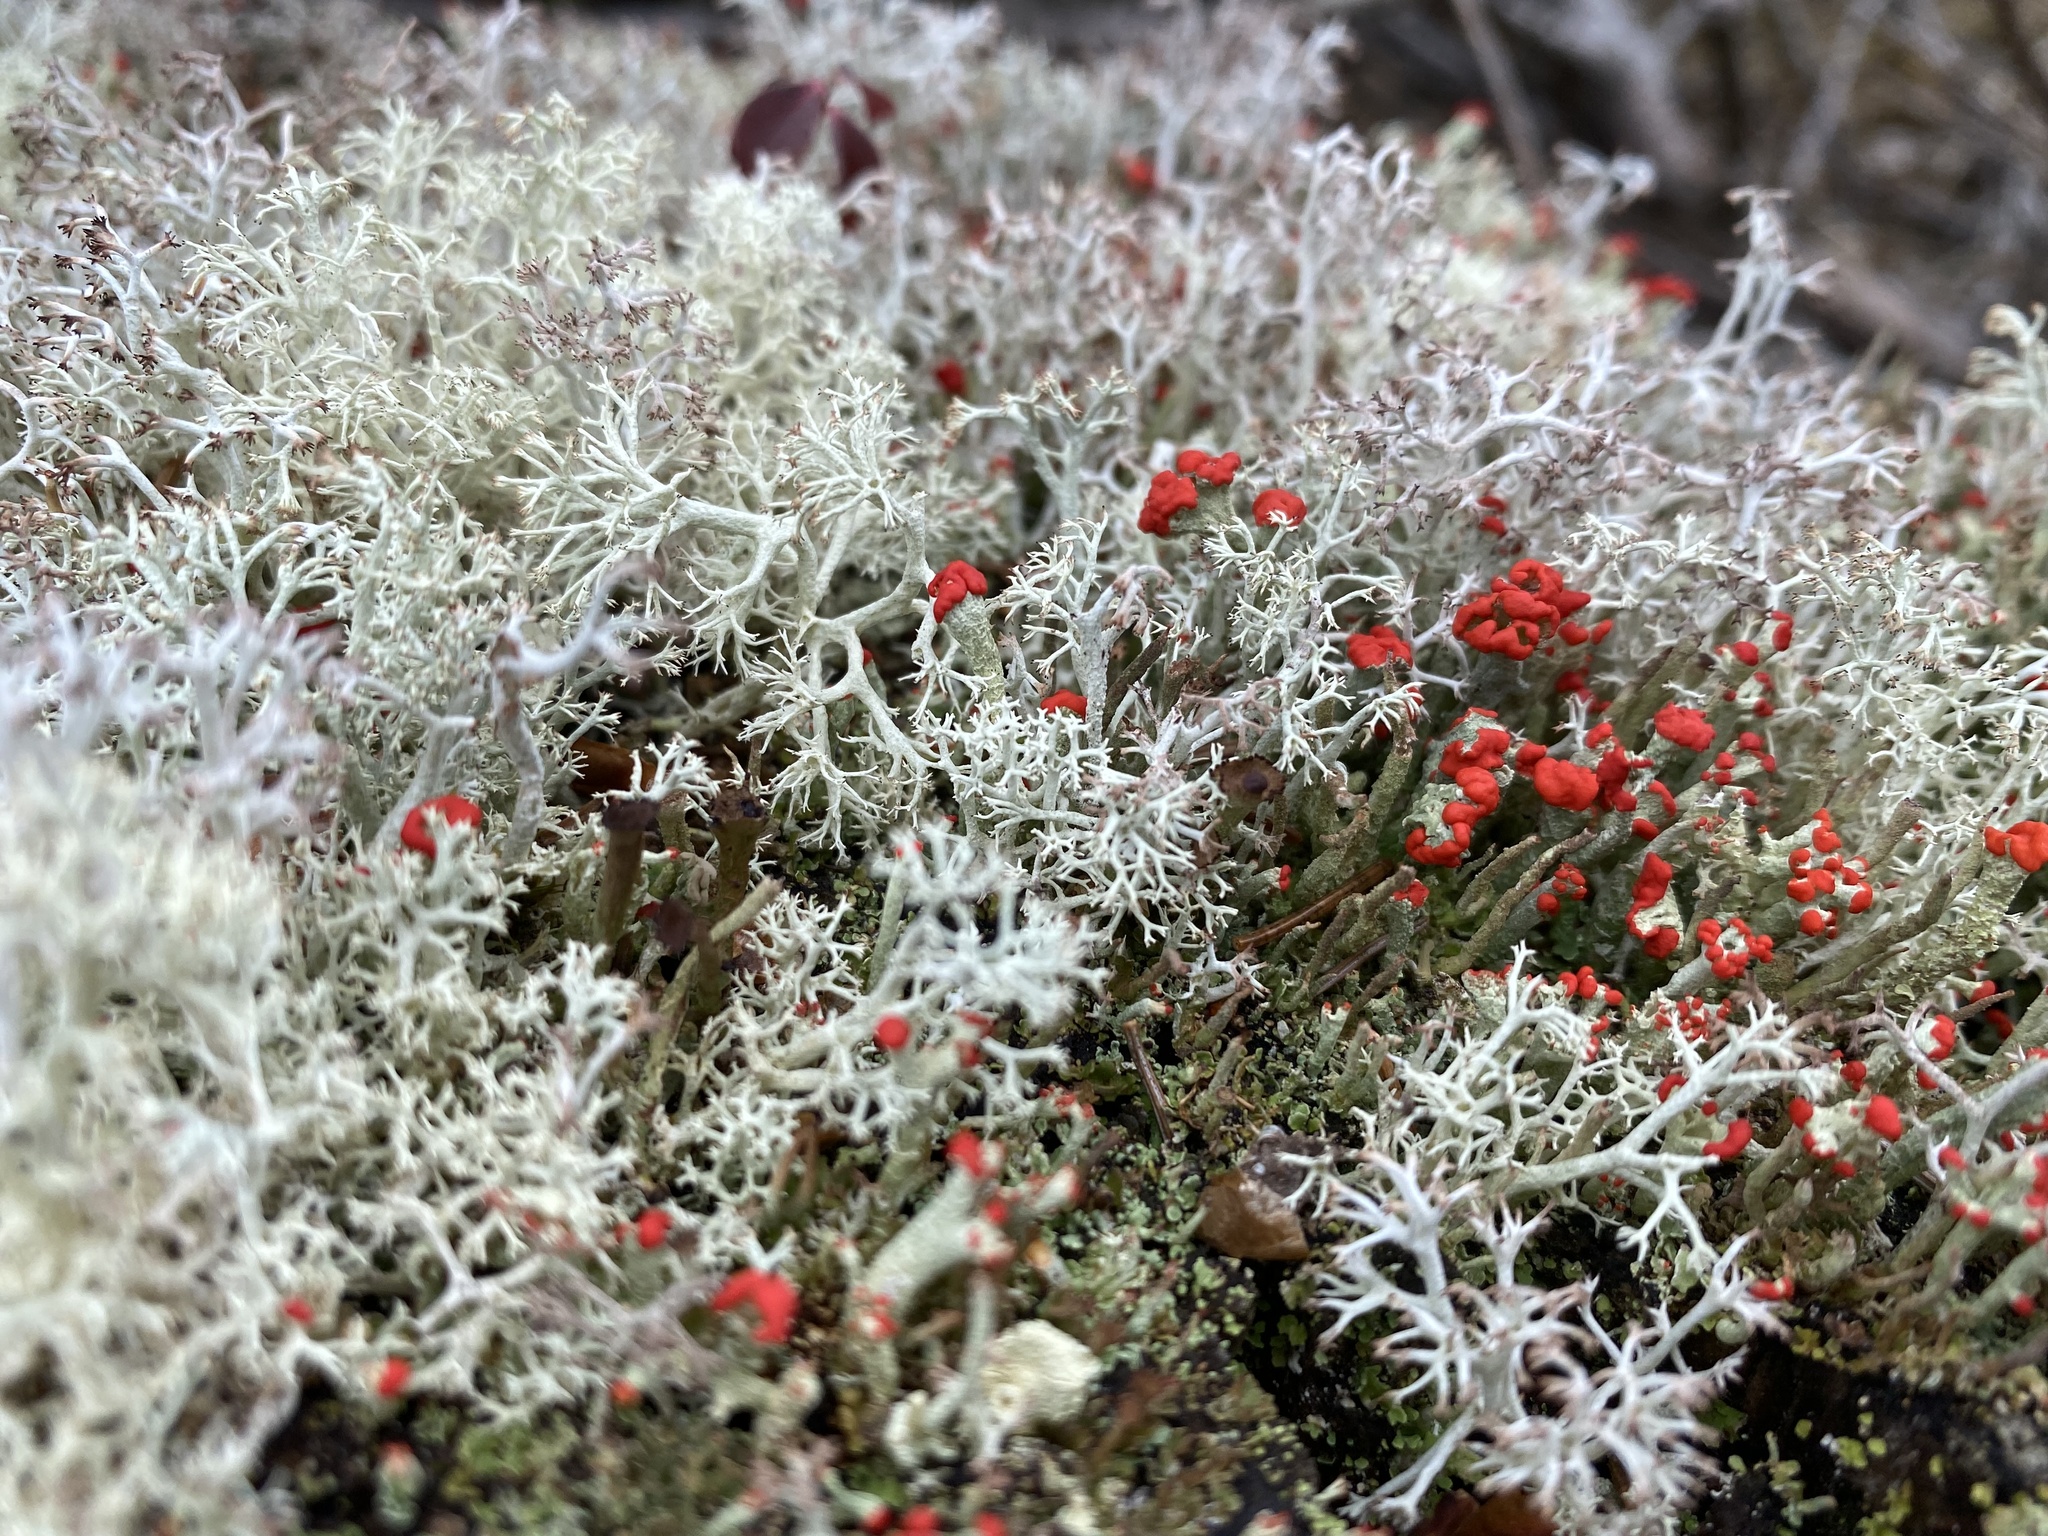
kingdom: Fungi
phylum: Ascomycota
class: Lecanoromycetes
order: Lecanorales
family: Cladoniaceae
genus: Cladonia
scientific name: Cladonia cristatella
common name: British soldier lichen
